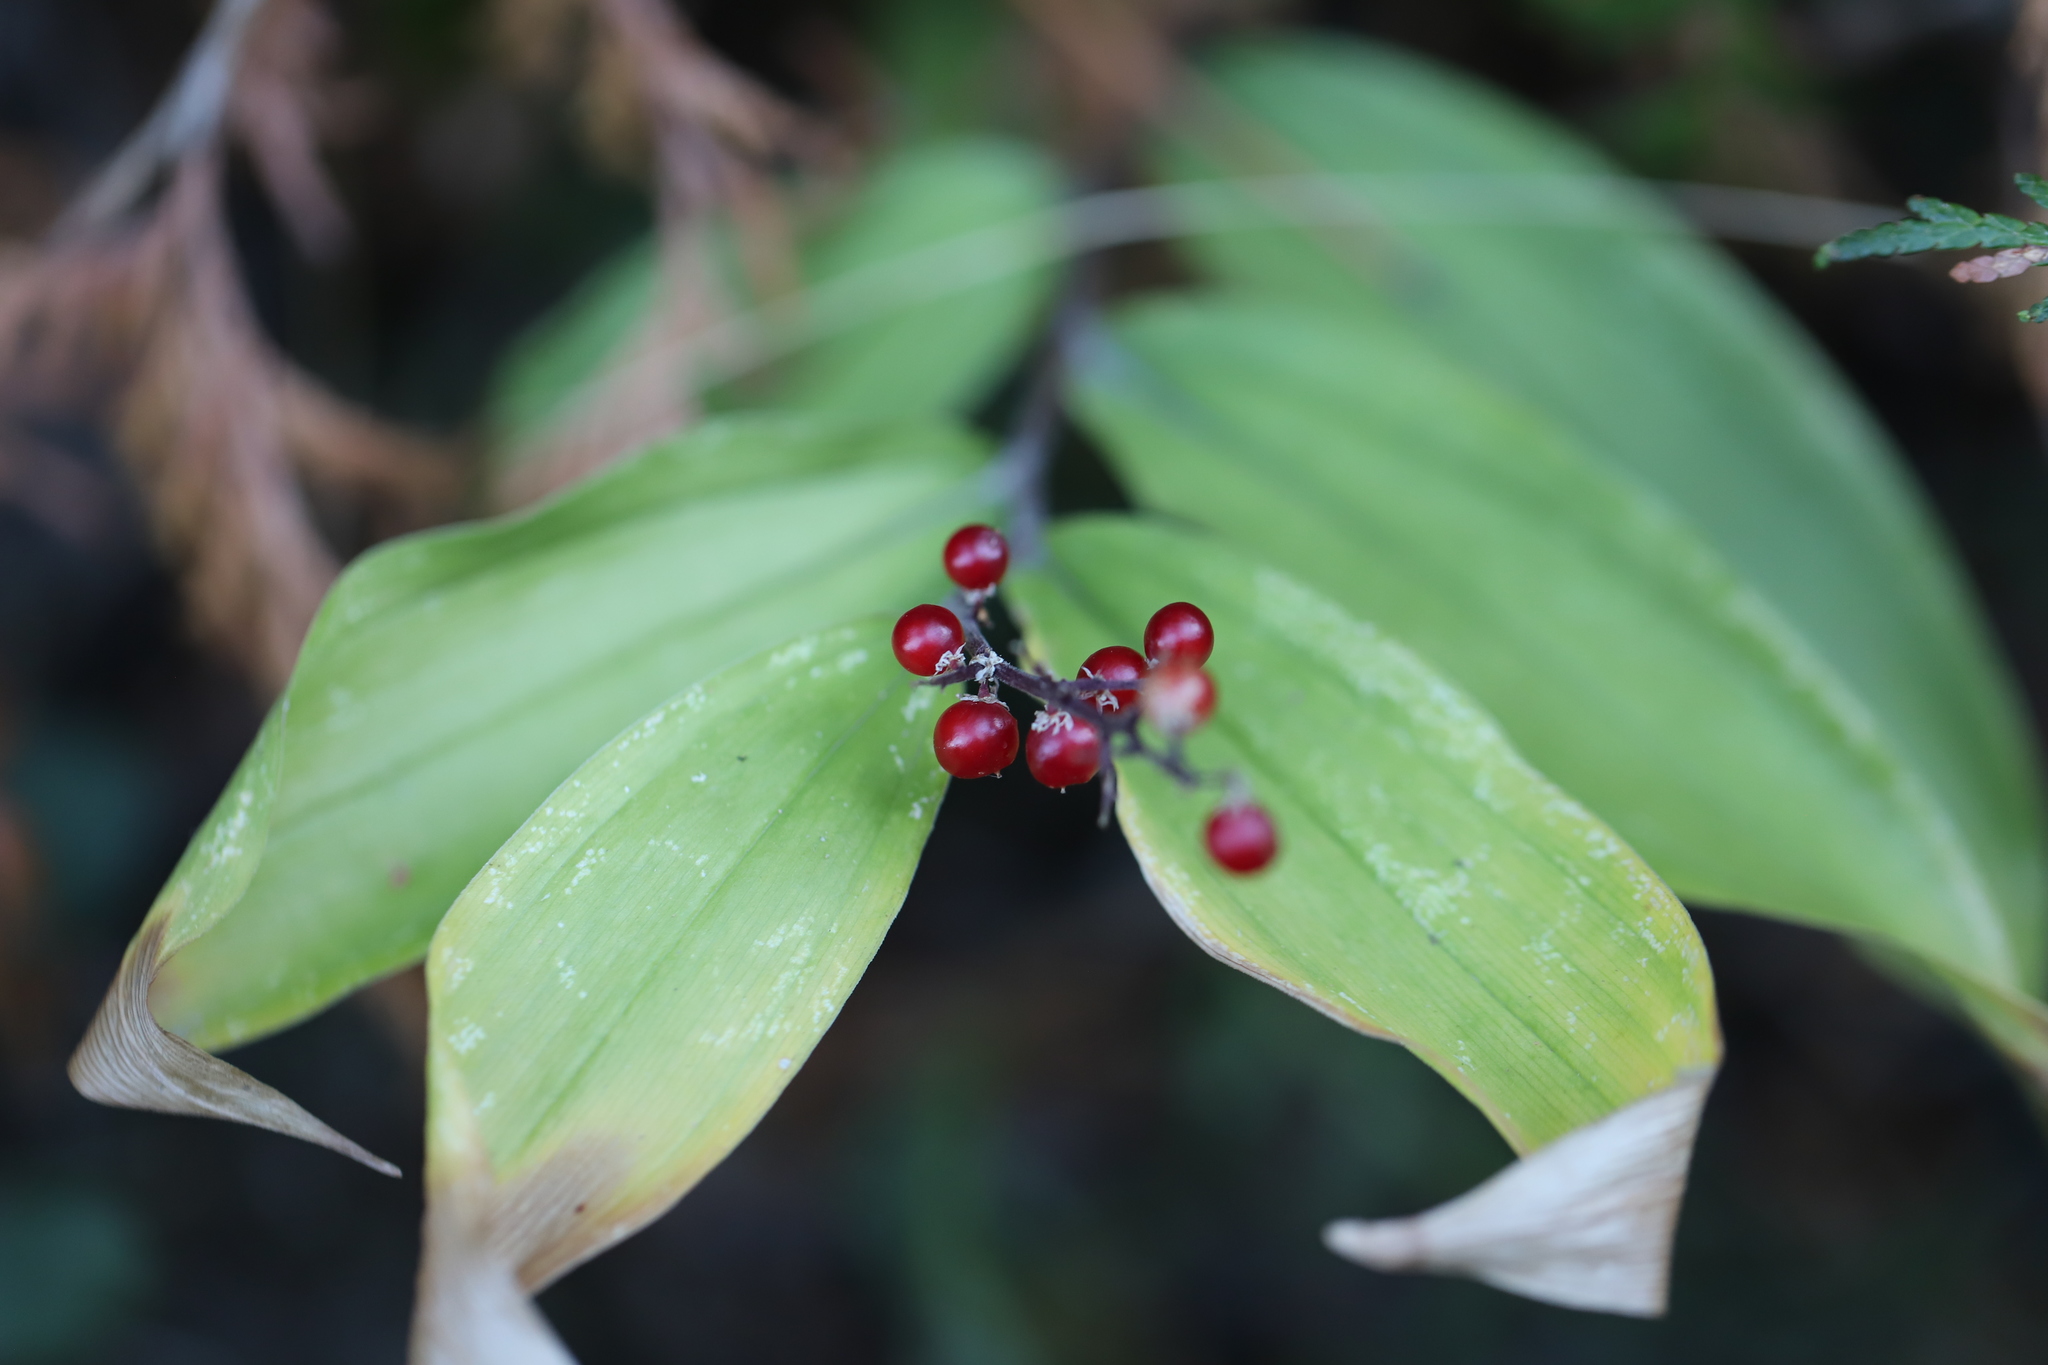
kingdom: Plantae
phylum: Tracheophyta
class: Liliopsida
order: Asparagales
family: Asparagaceae
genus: Maianthemum
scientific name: Maianthemum racemosum
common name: False spikenard
